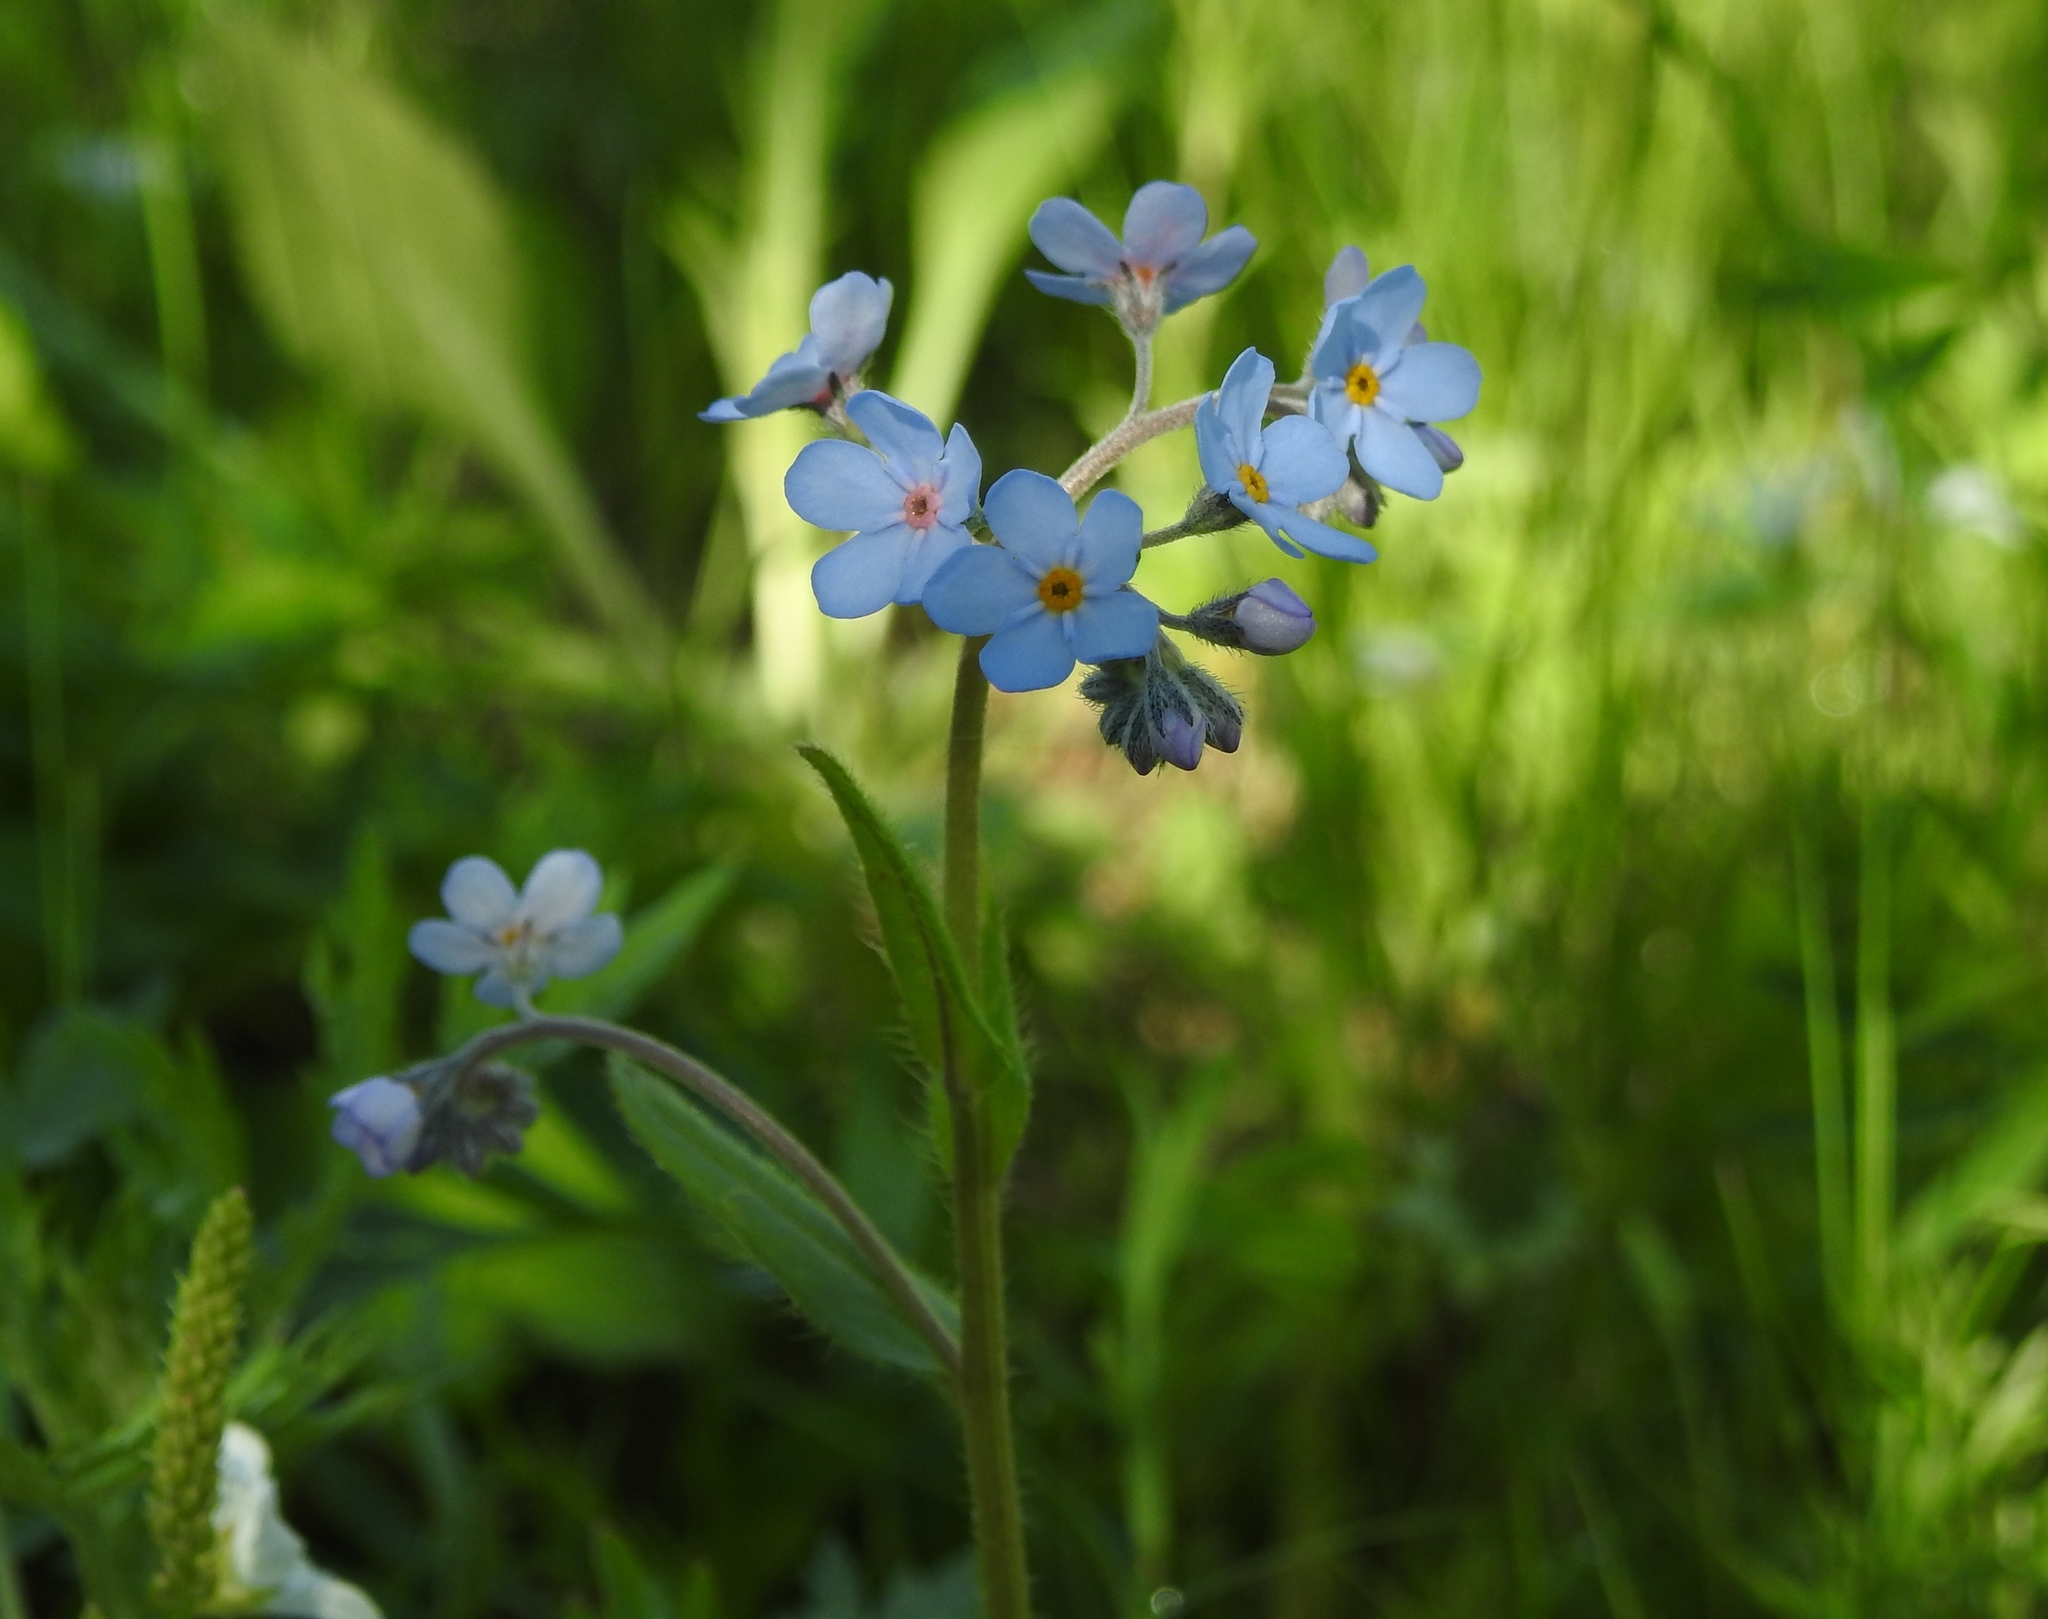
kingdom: Plantae
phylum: Tracheophyta
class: Magnoliopsida
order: Boraginales
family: Boraginaceae
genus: Myosotis
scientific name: Myosotis imitata
